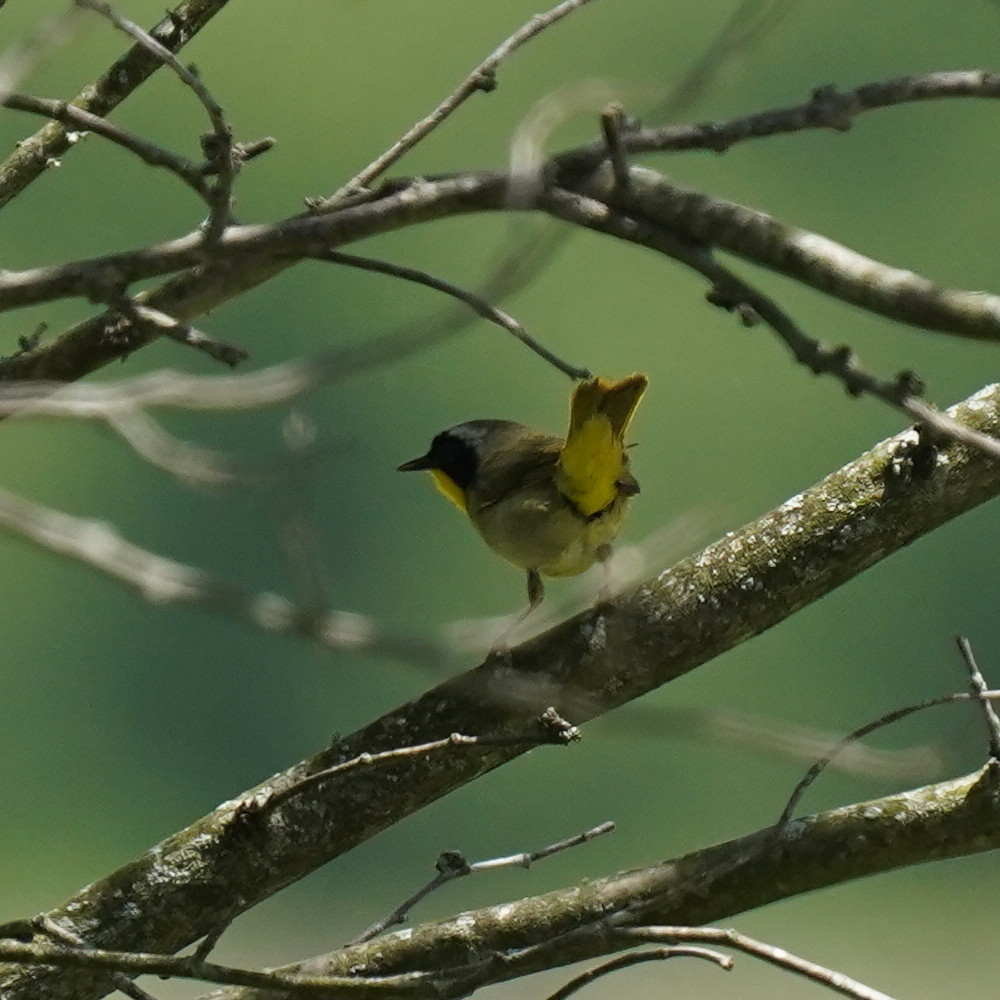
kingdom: Animalia
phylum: Chordata
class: Aves
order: Passeriformes
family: Parulidae
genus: Geothlypis
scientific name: Geothlypis trichas
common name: Common yellowthroat
